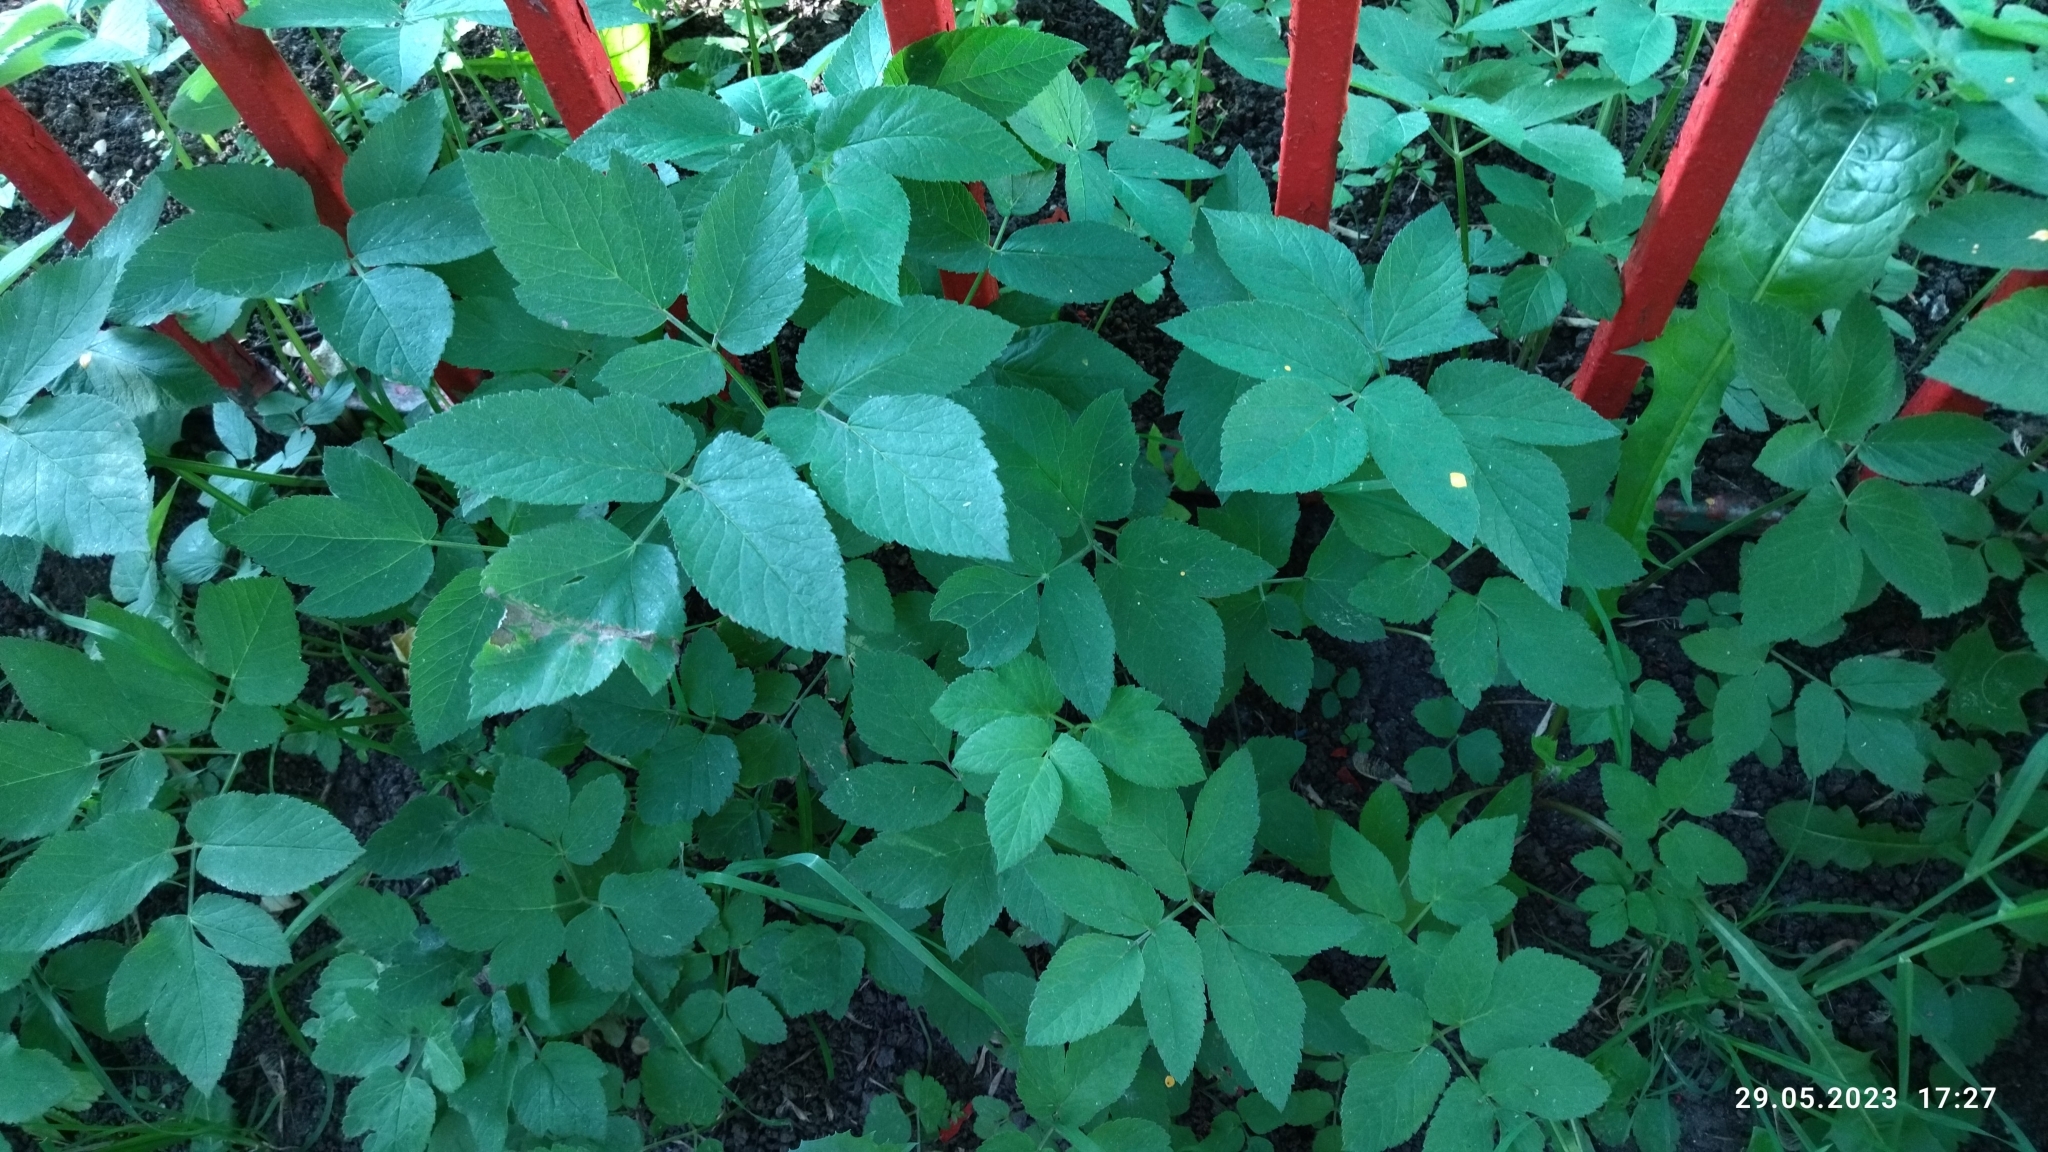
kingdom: Plantae
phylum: Tracheophyta
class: Magnoliopsida
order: Apiales
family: Apiaceae
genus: Aegopodium
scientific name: Aegopodium podagraria
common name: Ground-elder
